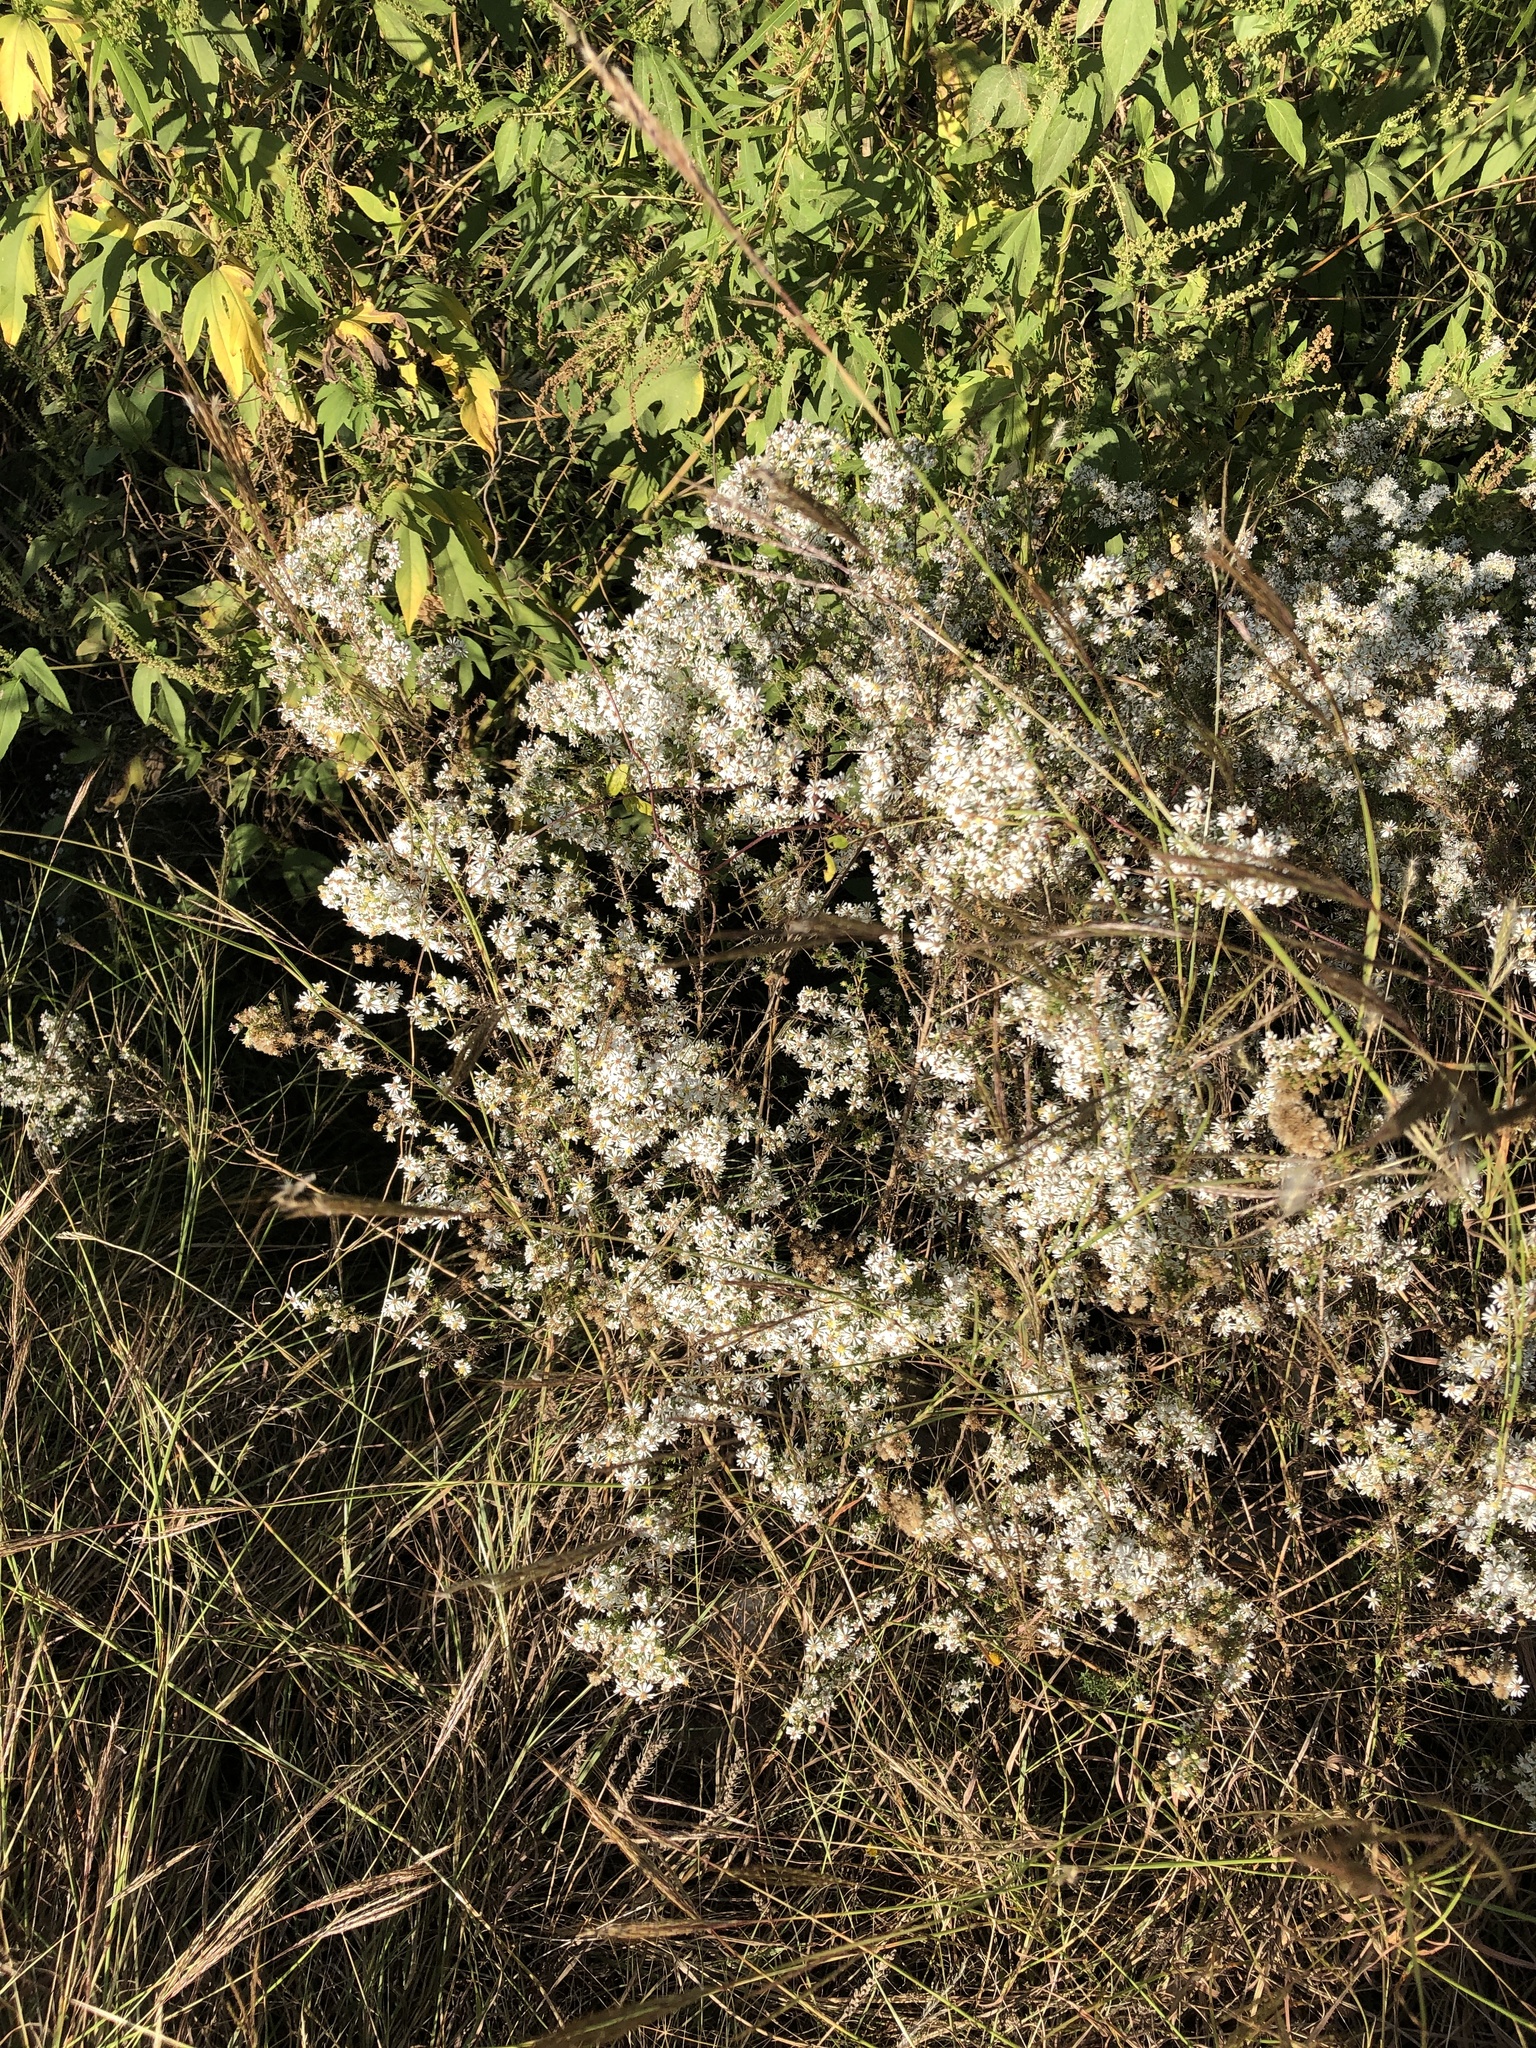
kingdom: Plantae
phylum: Tracheophyta
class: Magnoliopsida
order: Asterales
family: Asteraceae
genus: Symphyotrichum
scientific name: Symphyotrichum ericoides
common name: Heath aster
